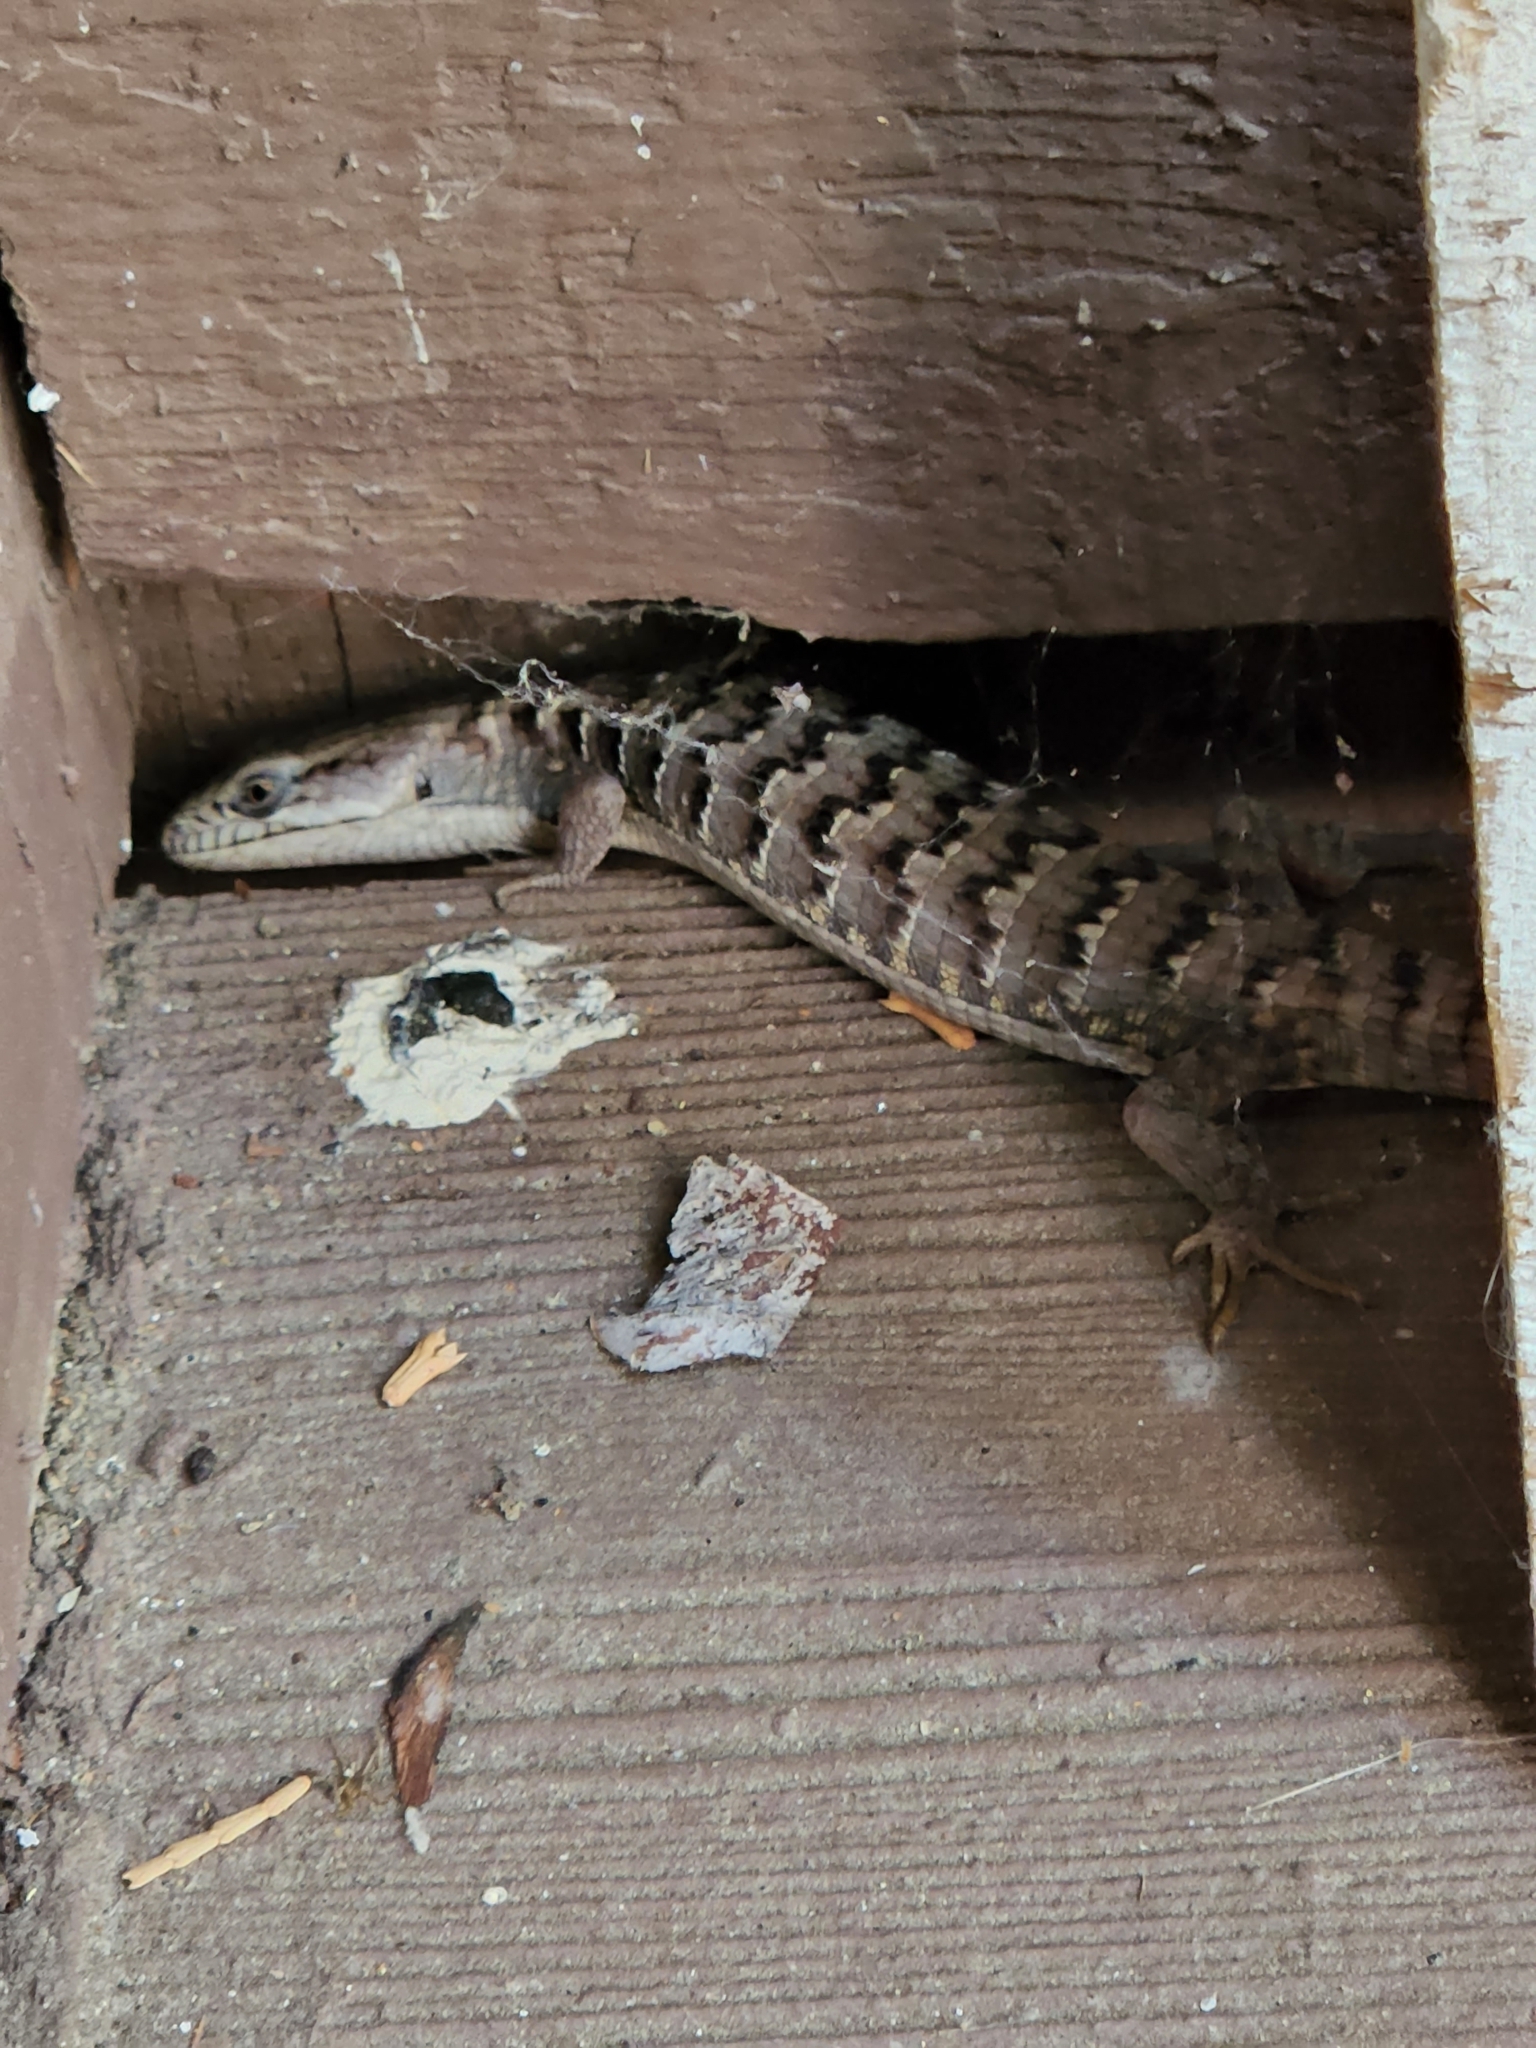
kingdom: Animalia
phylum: Chordata
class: Squamata
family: Anguidae
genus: Elgaria
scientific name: Elgaria multicarinata
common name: Southern alligator lizard
